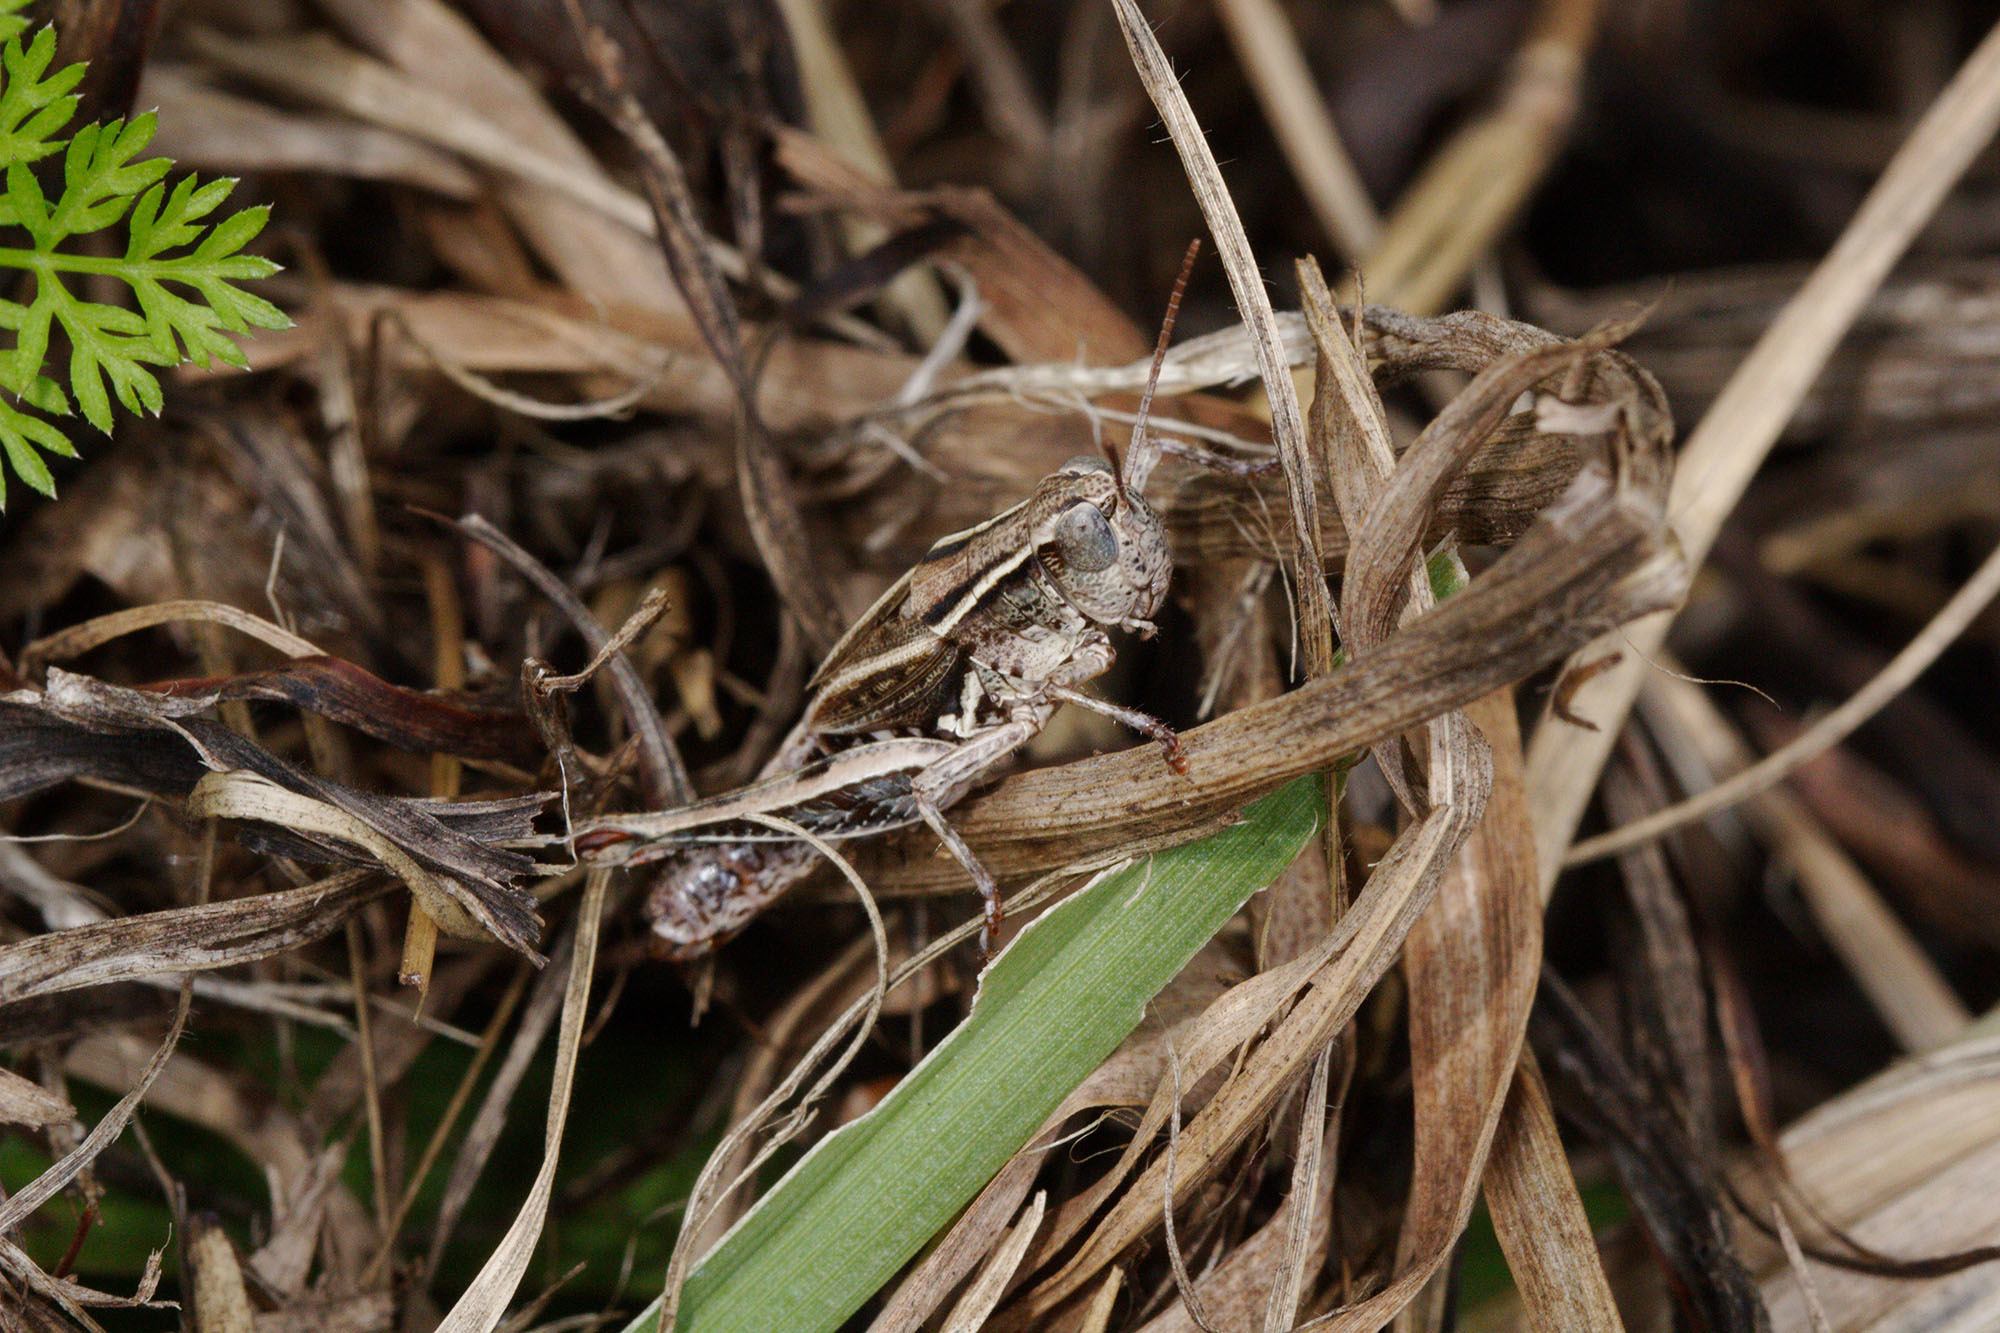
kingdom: Animalia
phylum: Arthropoda
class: Insecta
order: Orthoptera
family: Acrididae
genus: Phaulacridium
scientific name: Phaulacridium marginale
